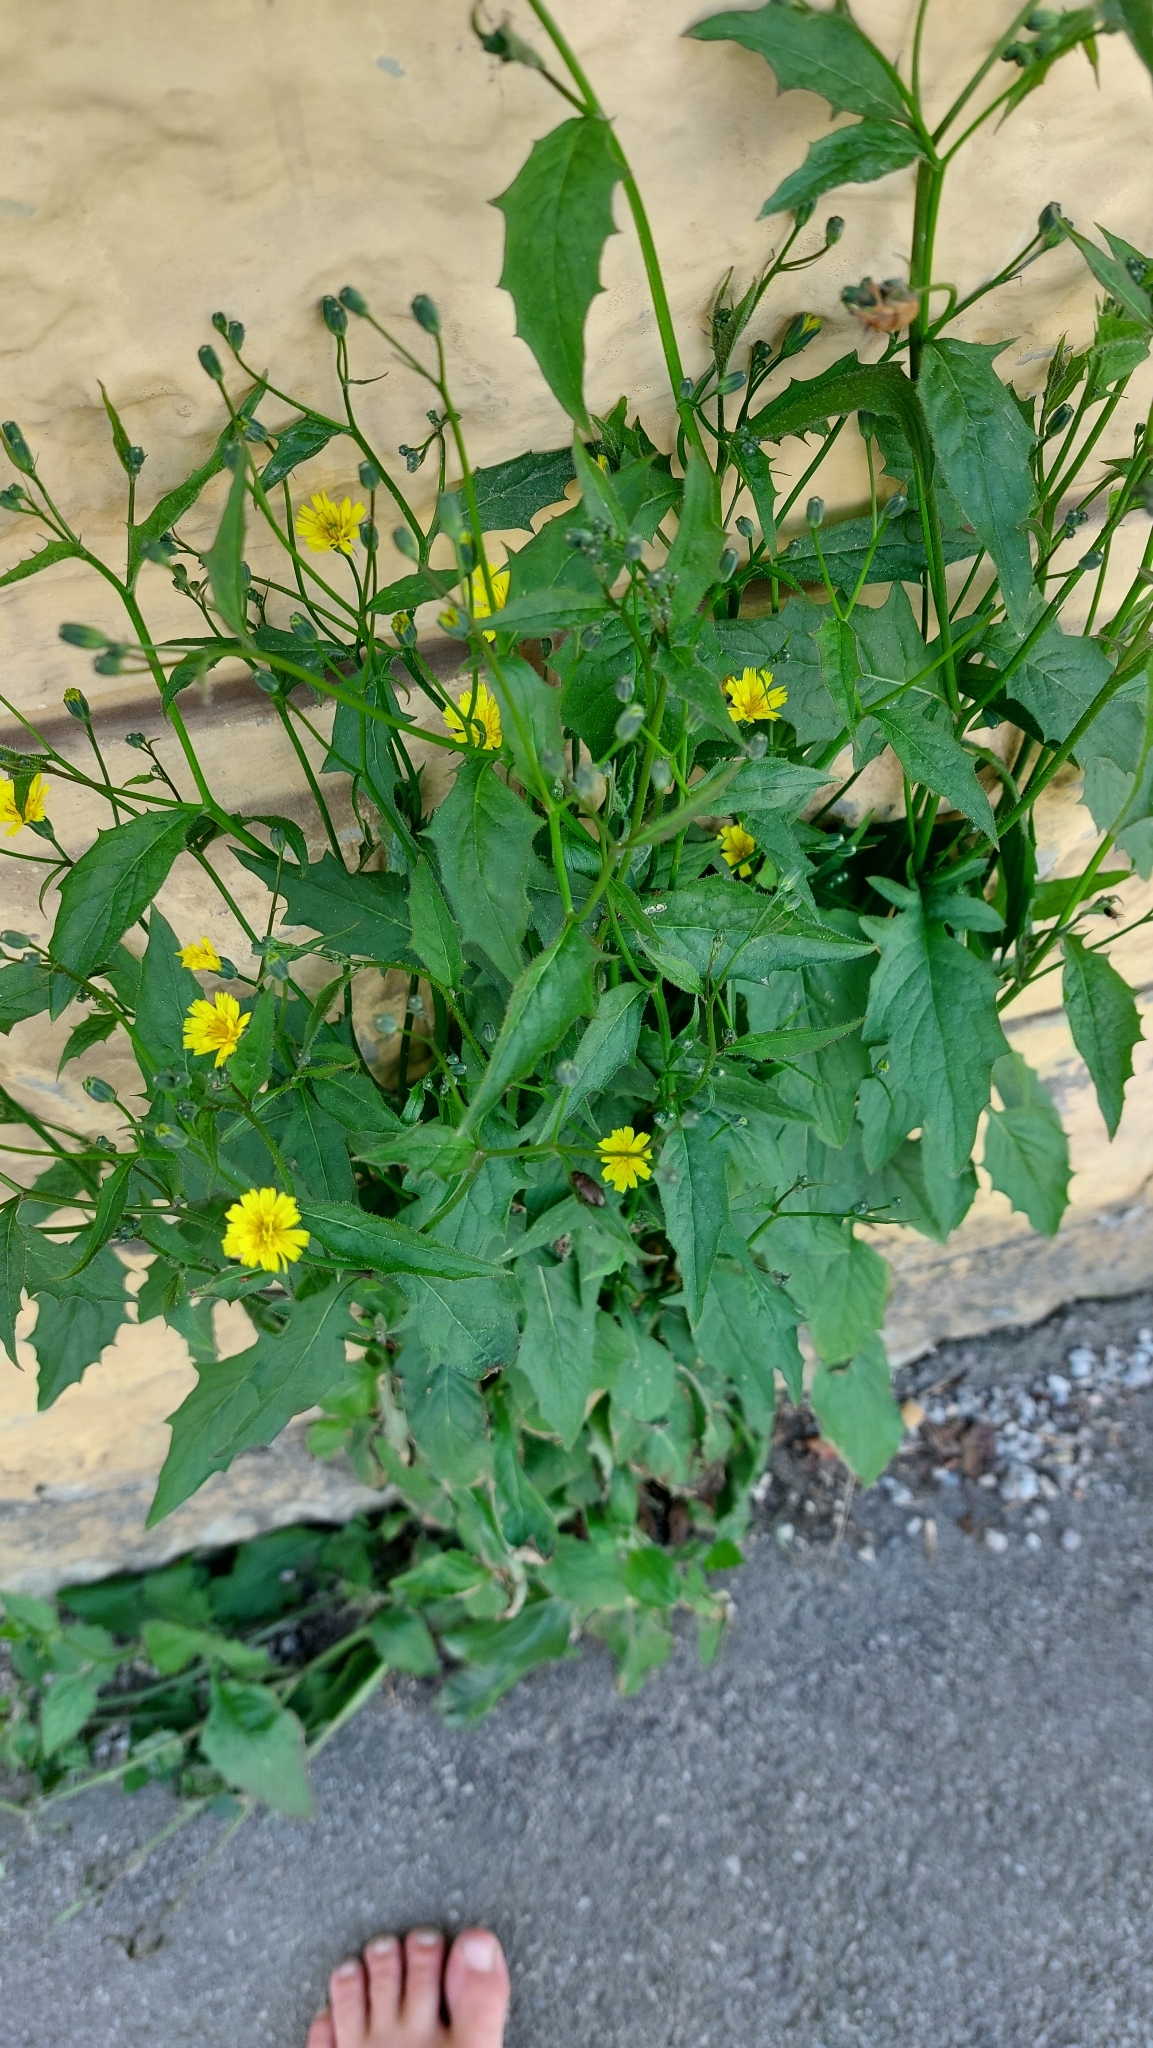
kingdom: Plantae
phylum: Tracheophyta
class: Magnoliopsida
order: Asterales
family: Asteraceae
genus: Lapsana
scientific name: Lapsana communis
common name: Nipplewort
